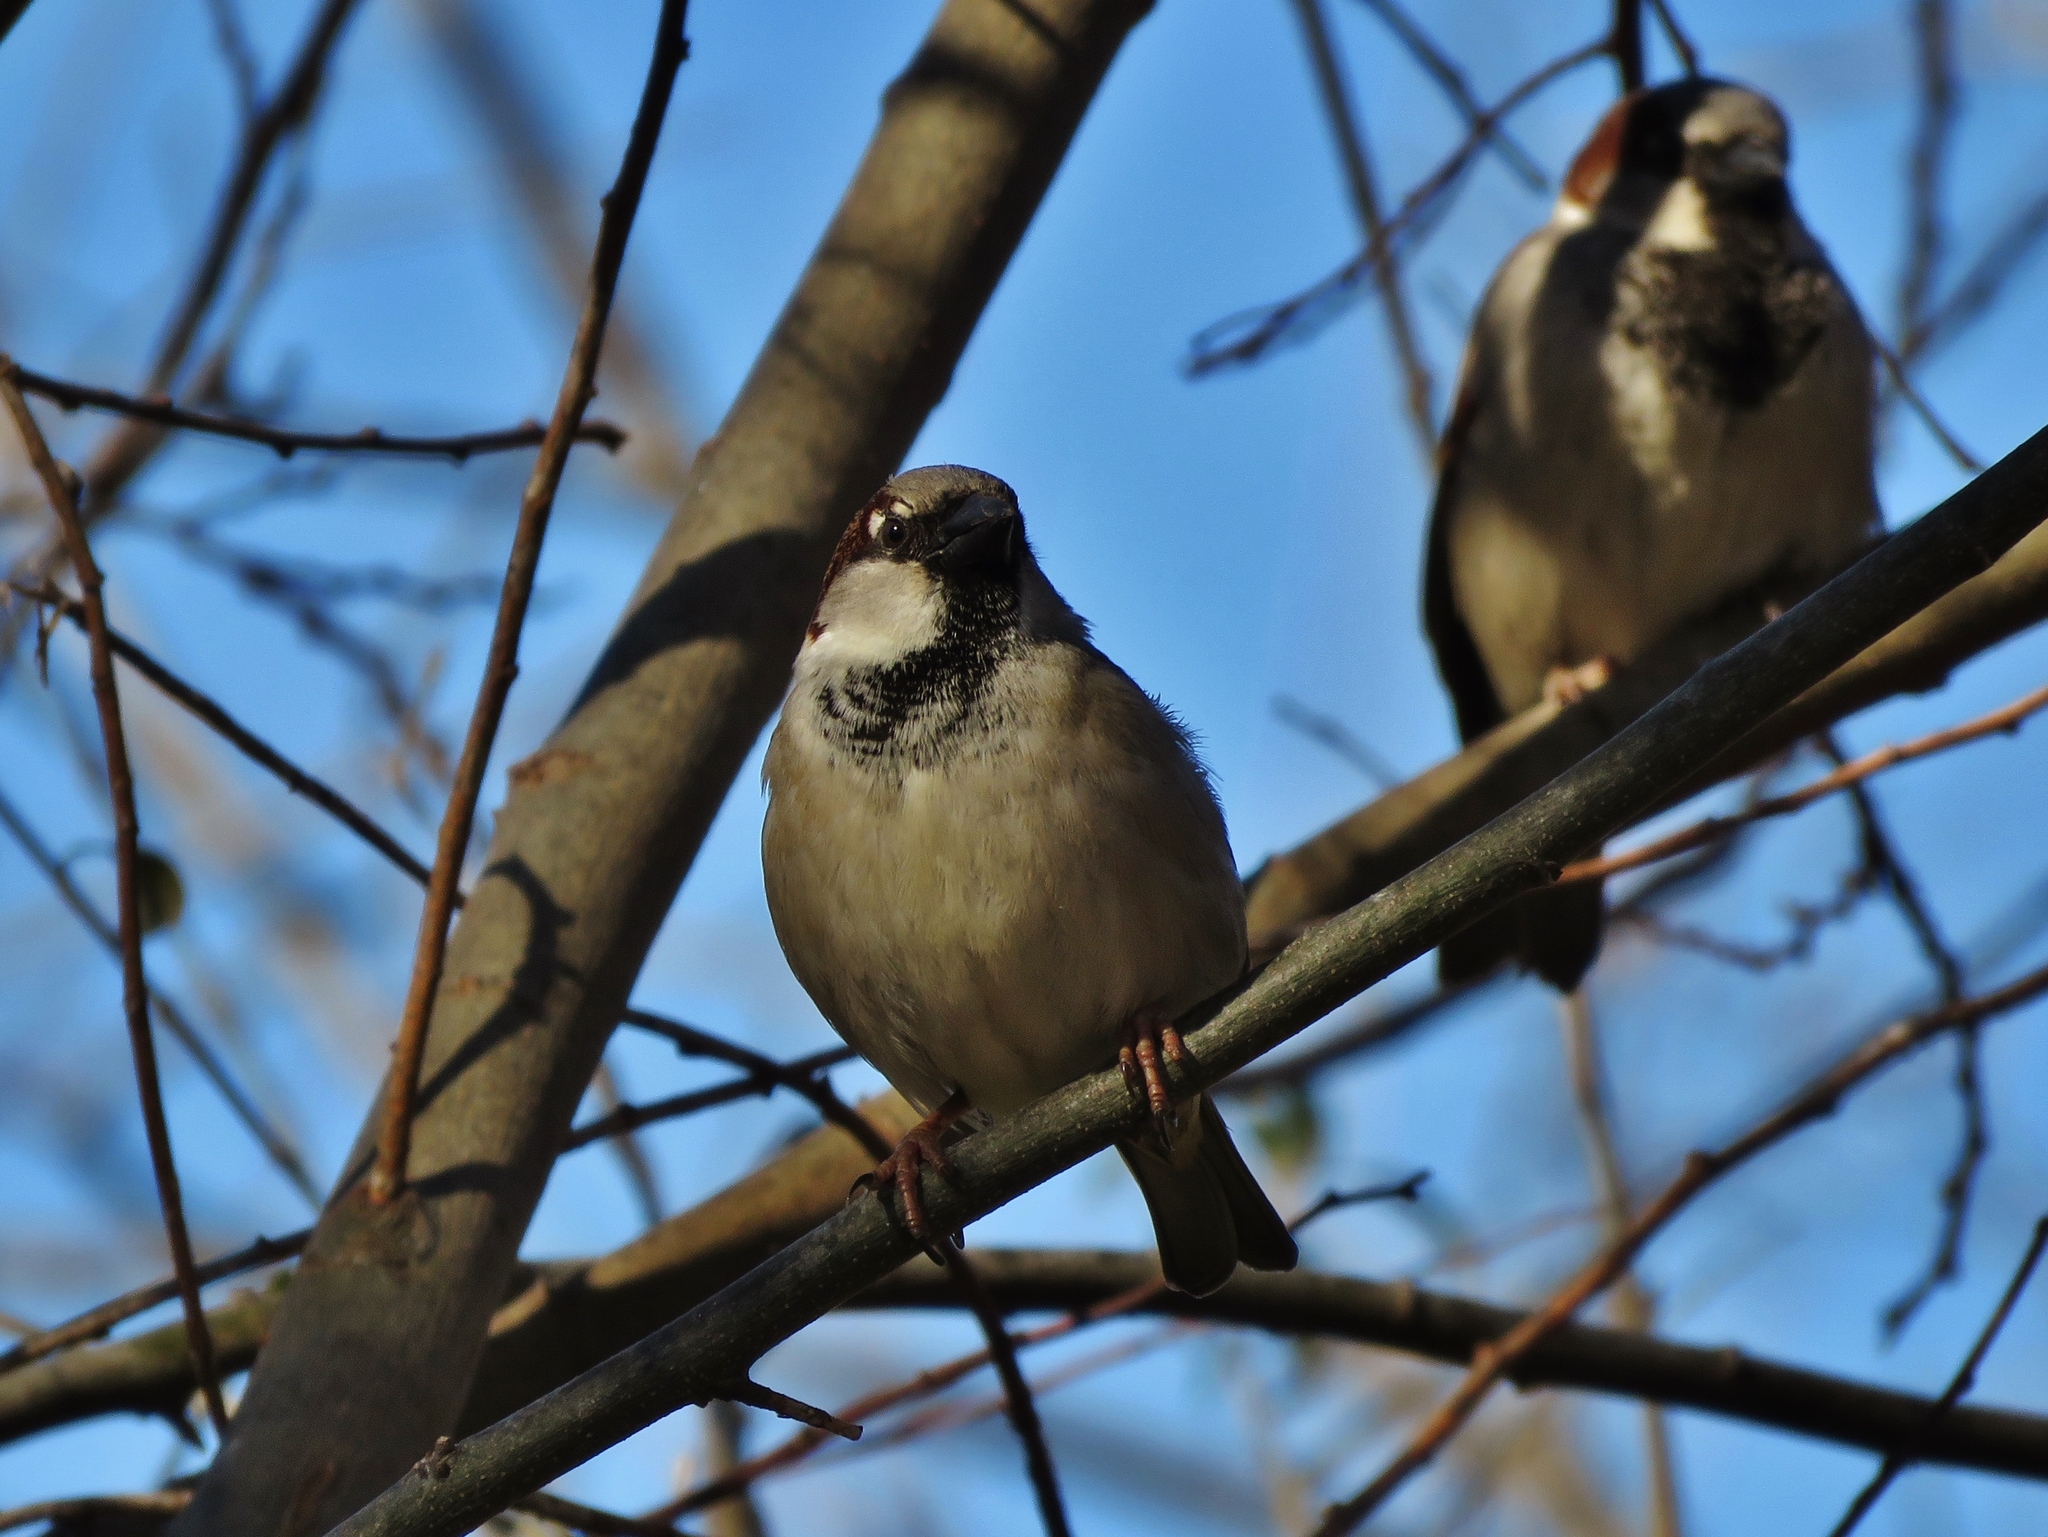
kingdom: Animalia
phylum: Chordata
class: Aves
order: Passeriformes
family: Passeridae
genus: Passer
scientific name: Passer domesticus
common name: House sparrow
